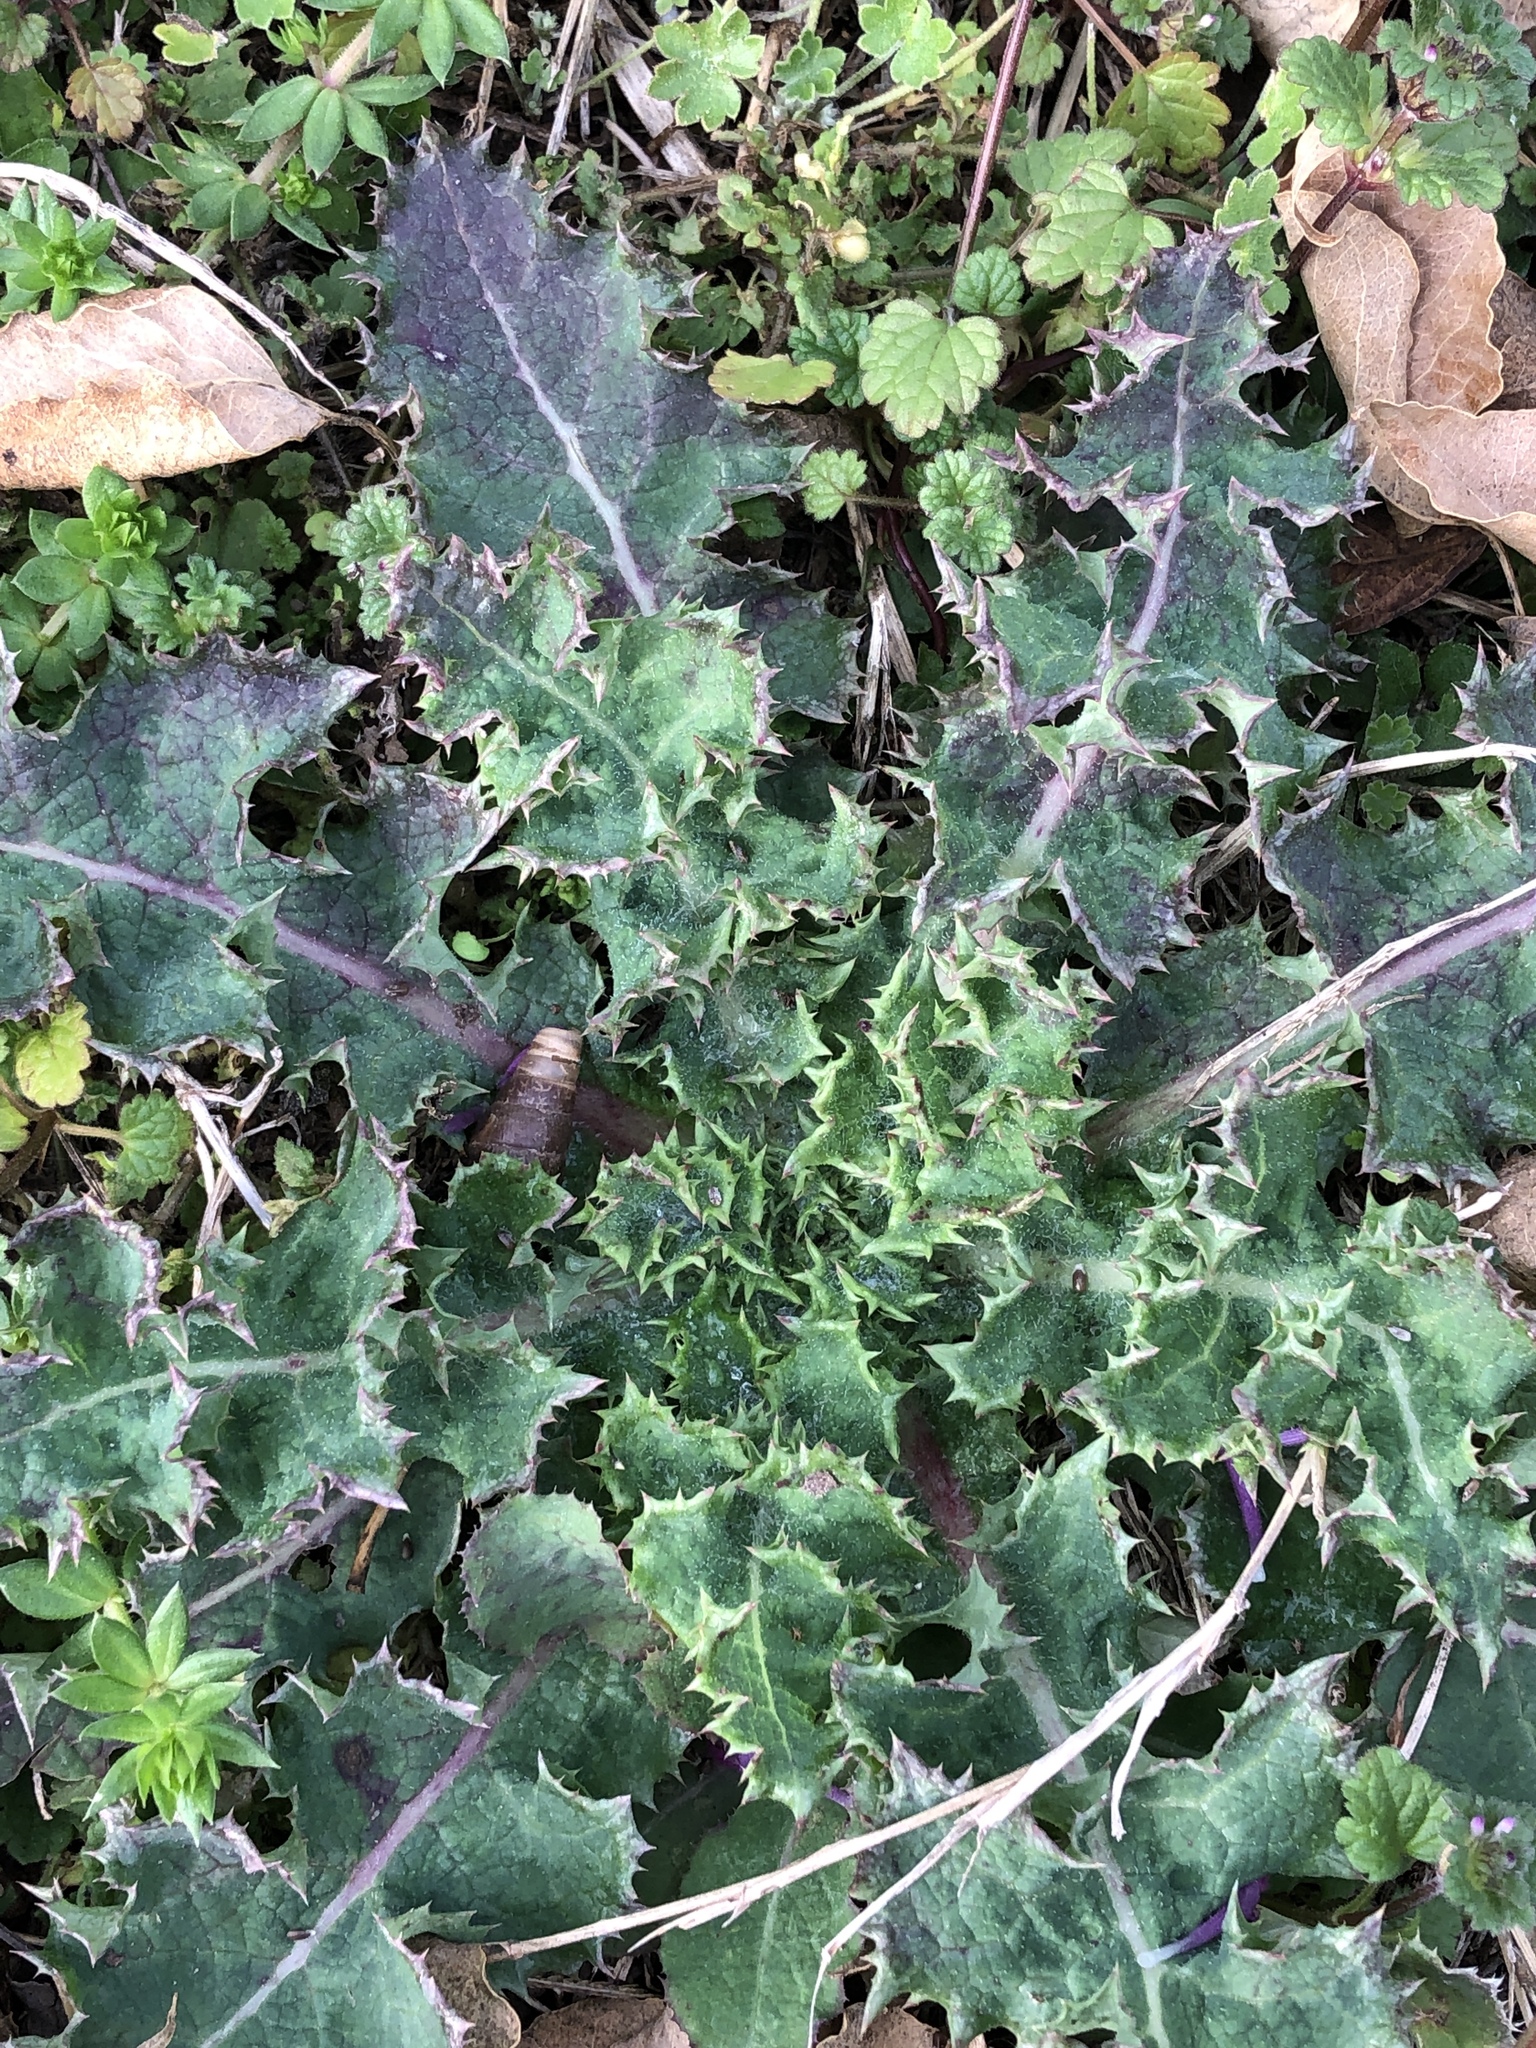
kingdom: Plantae
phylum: Tracheophyta
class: Magnoliopsida
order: Asterales
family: Asteraceae
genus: Sonchus
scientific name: Sonchus asper
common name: Prickly sow-thistle
